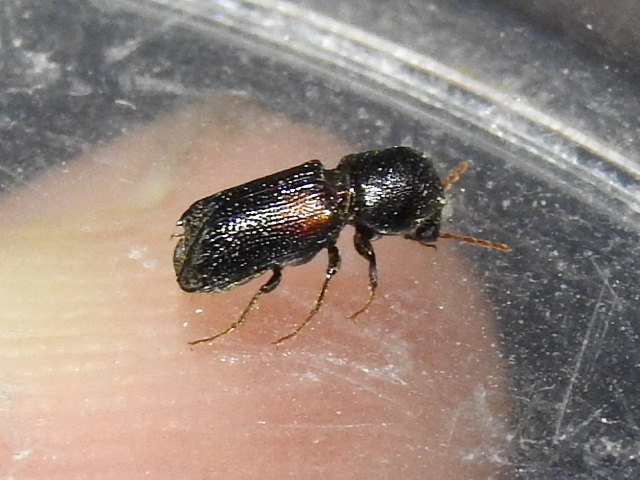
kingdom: Animalia
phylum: Arthropoda
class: Insecta
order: Coleoptera
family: Bostrichidae
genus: Xylobiops
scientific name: Xylobiops basilaris
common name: Red-shouldered bostrichid
